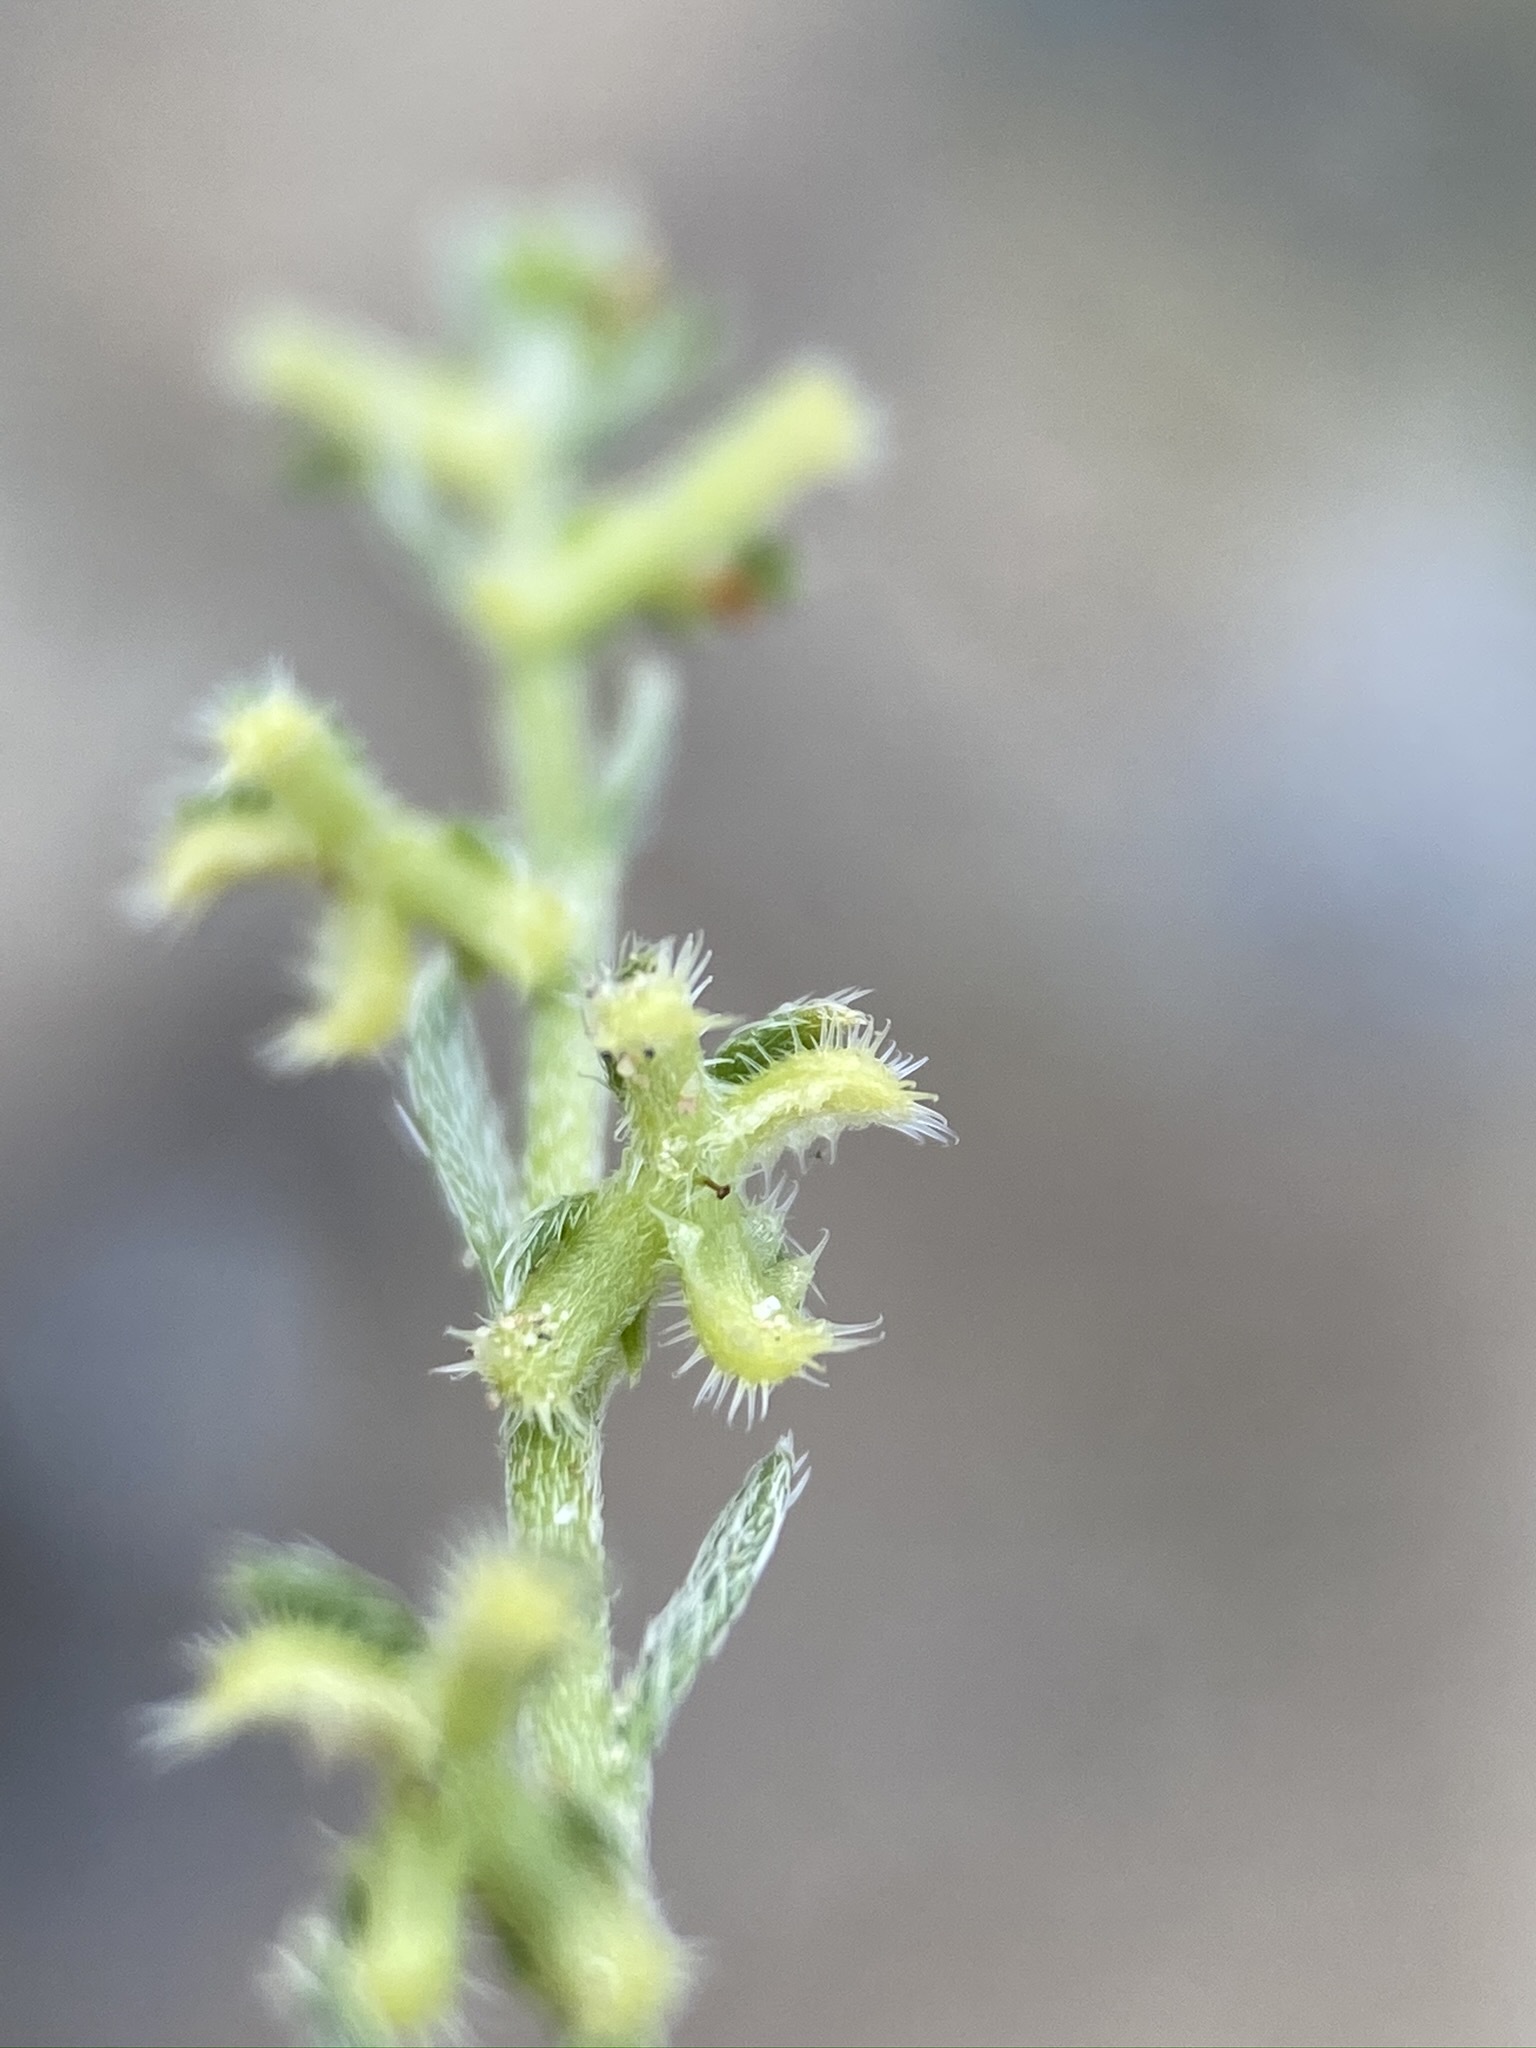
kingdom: Plantae
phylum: Tracheophyta
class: Magnoliopsida
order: Boraginales
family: Boraginaceae
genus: Pectocarya
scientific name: Pectocarya heterocarpa
